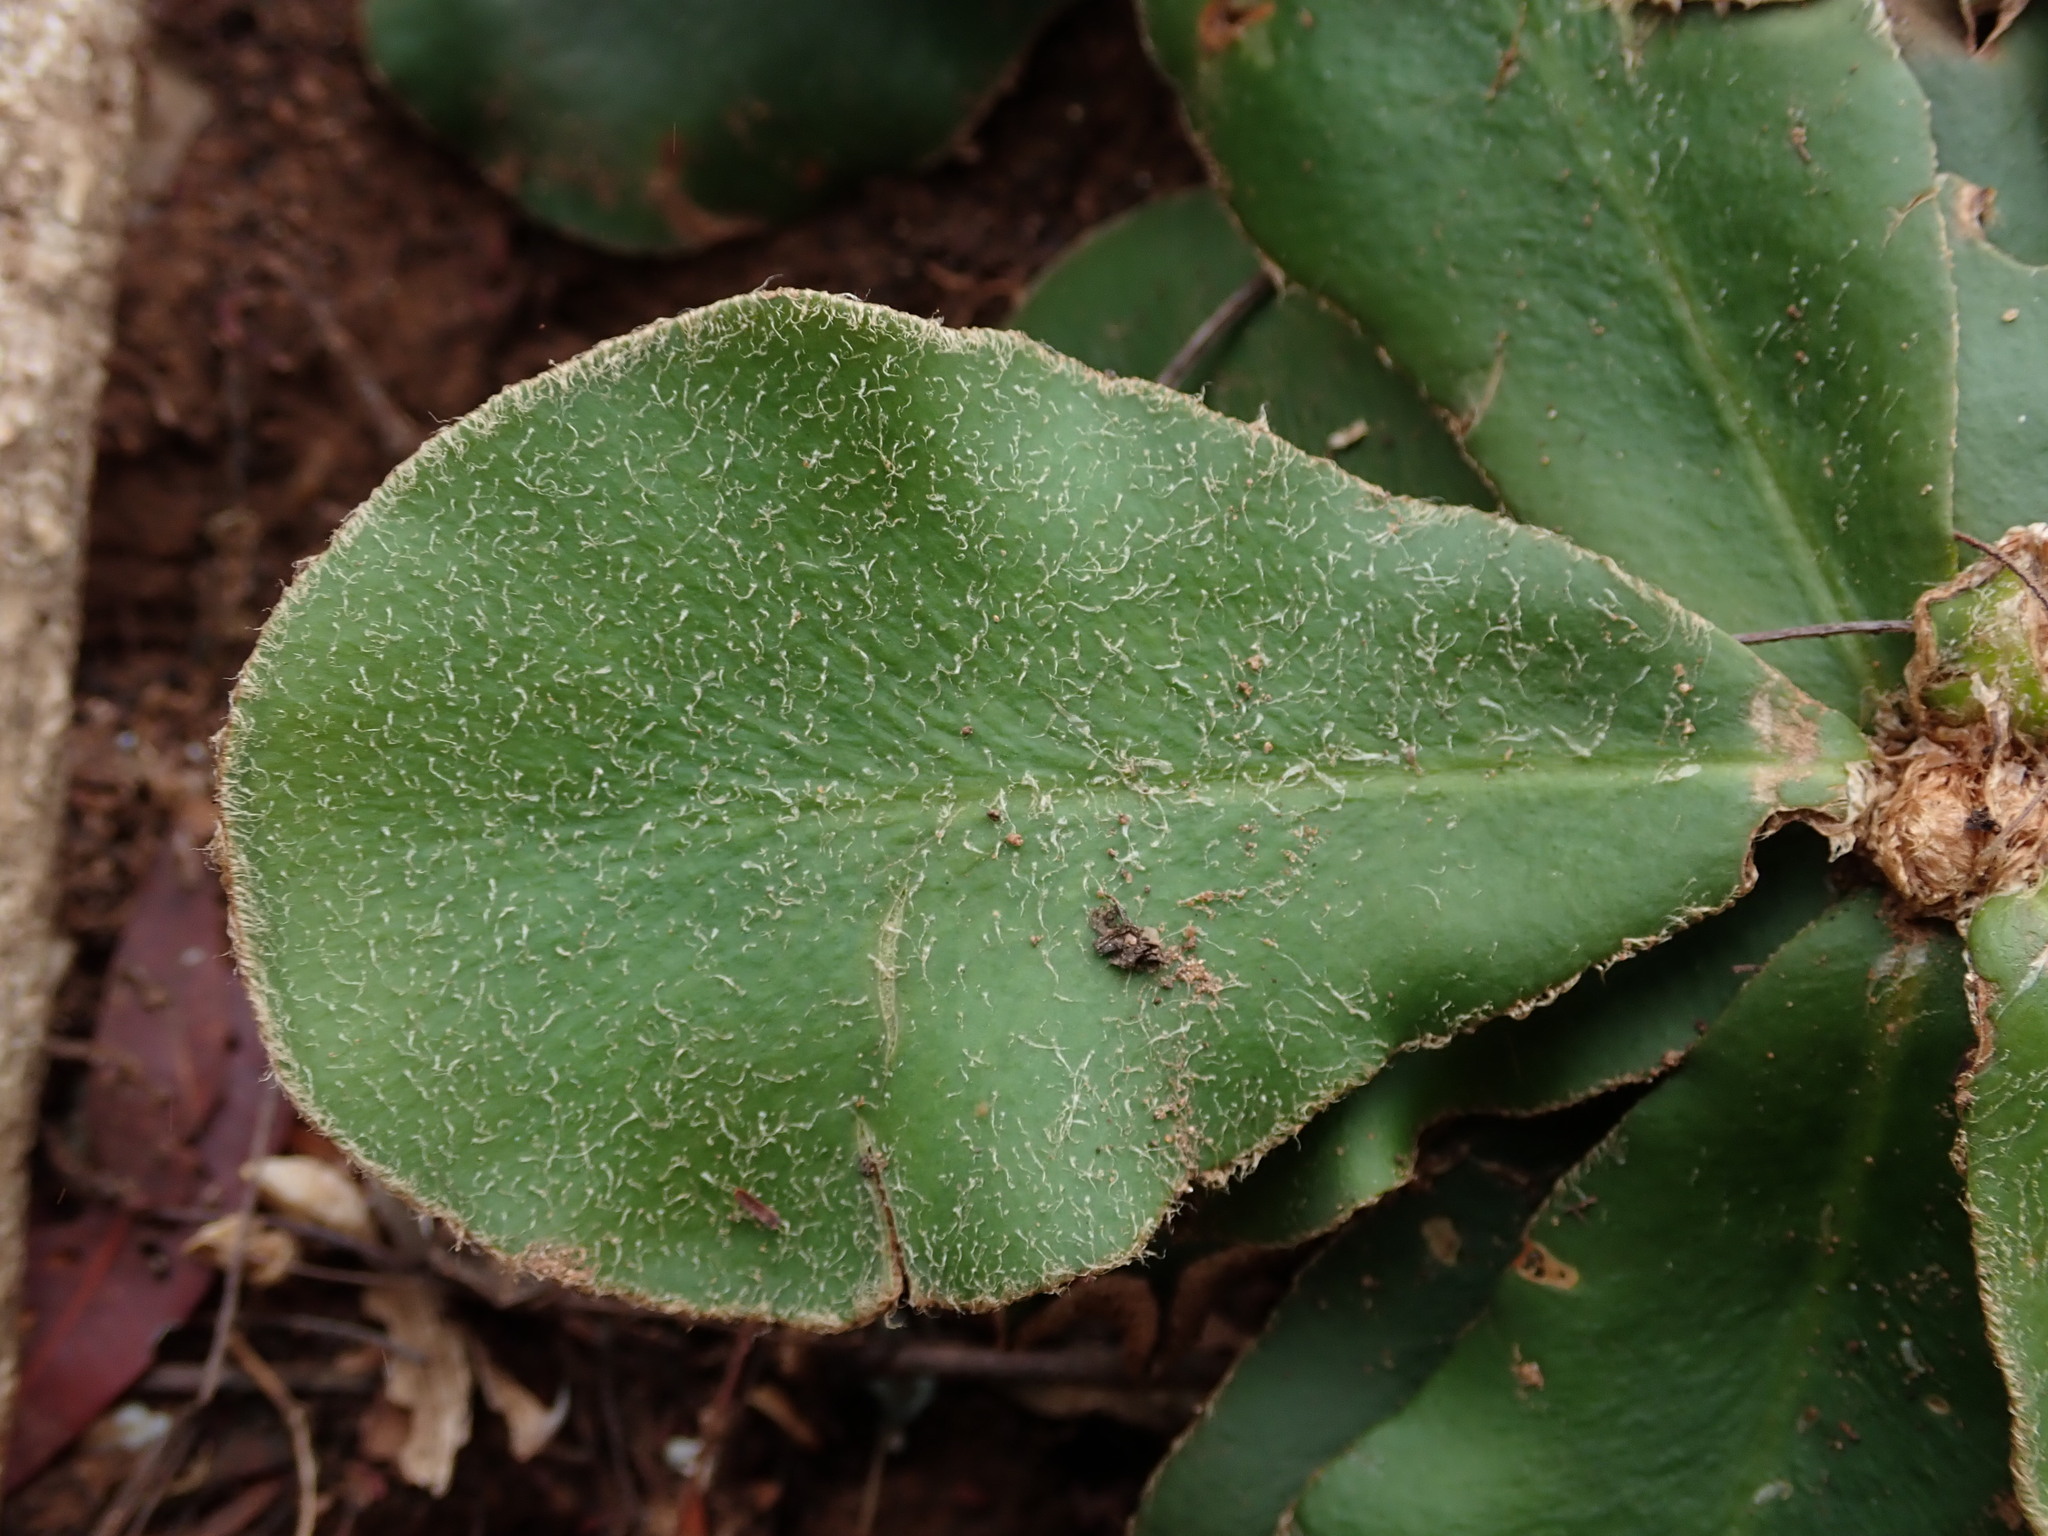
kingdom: Plantae
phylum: Tracheophyta
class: Polypodiopsida
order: Polypodiales
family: Pteridaceae
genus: Trachypteris
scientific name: Trachypteris pinnata
